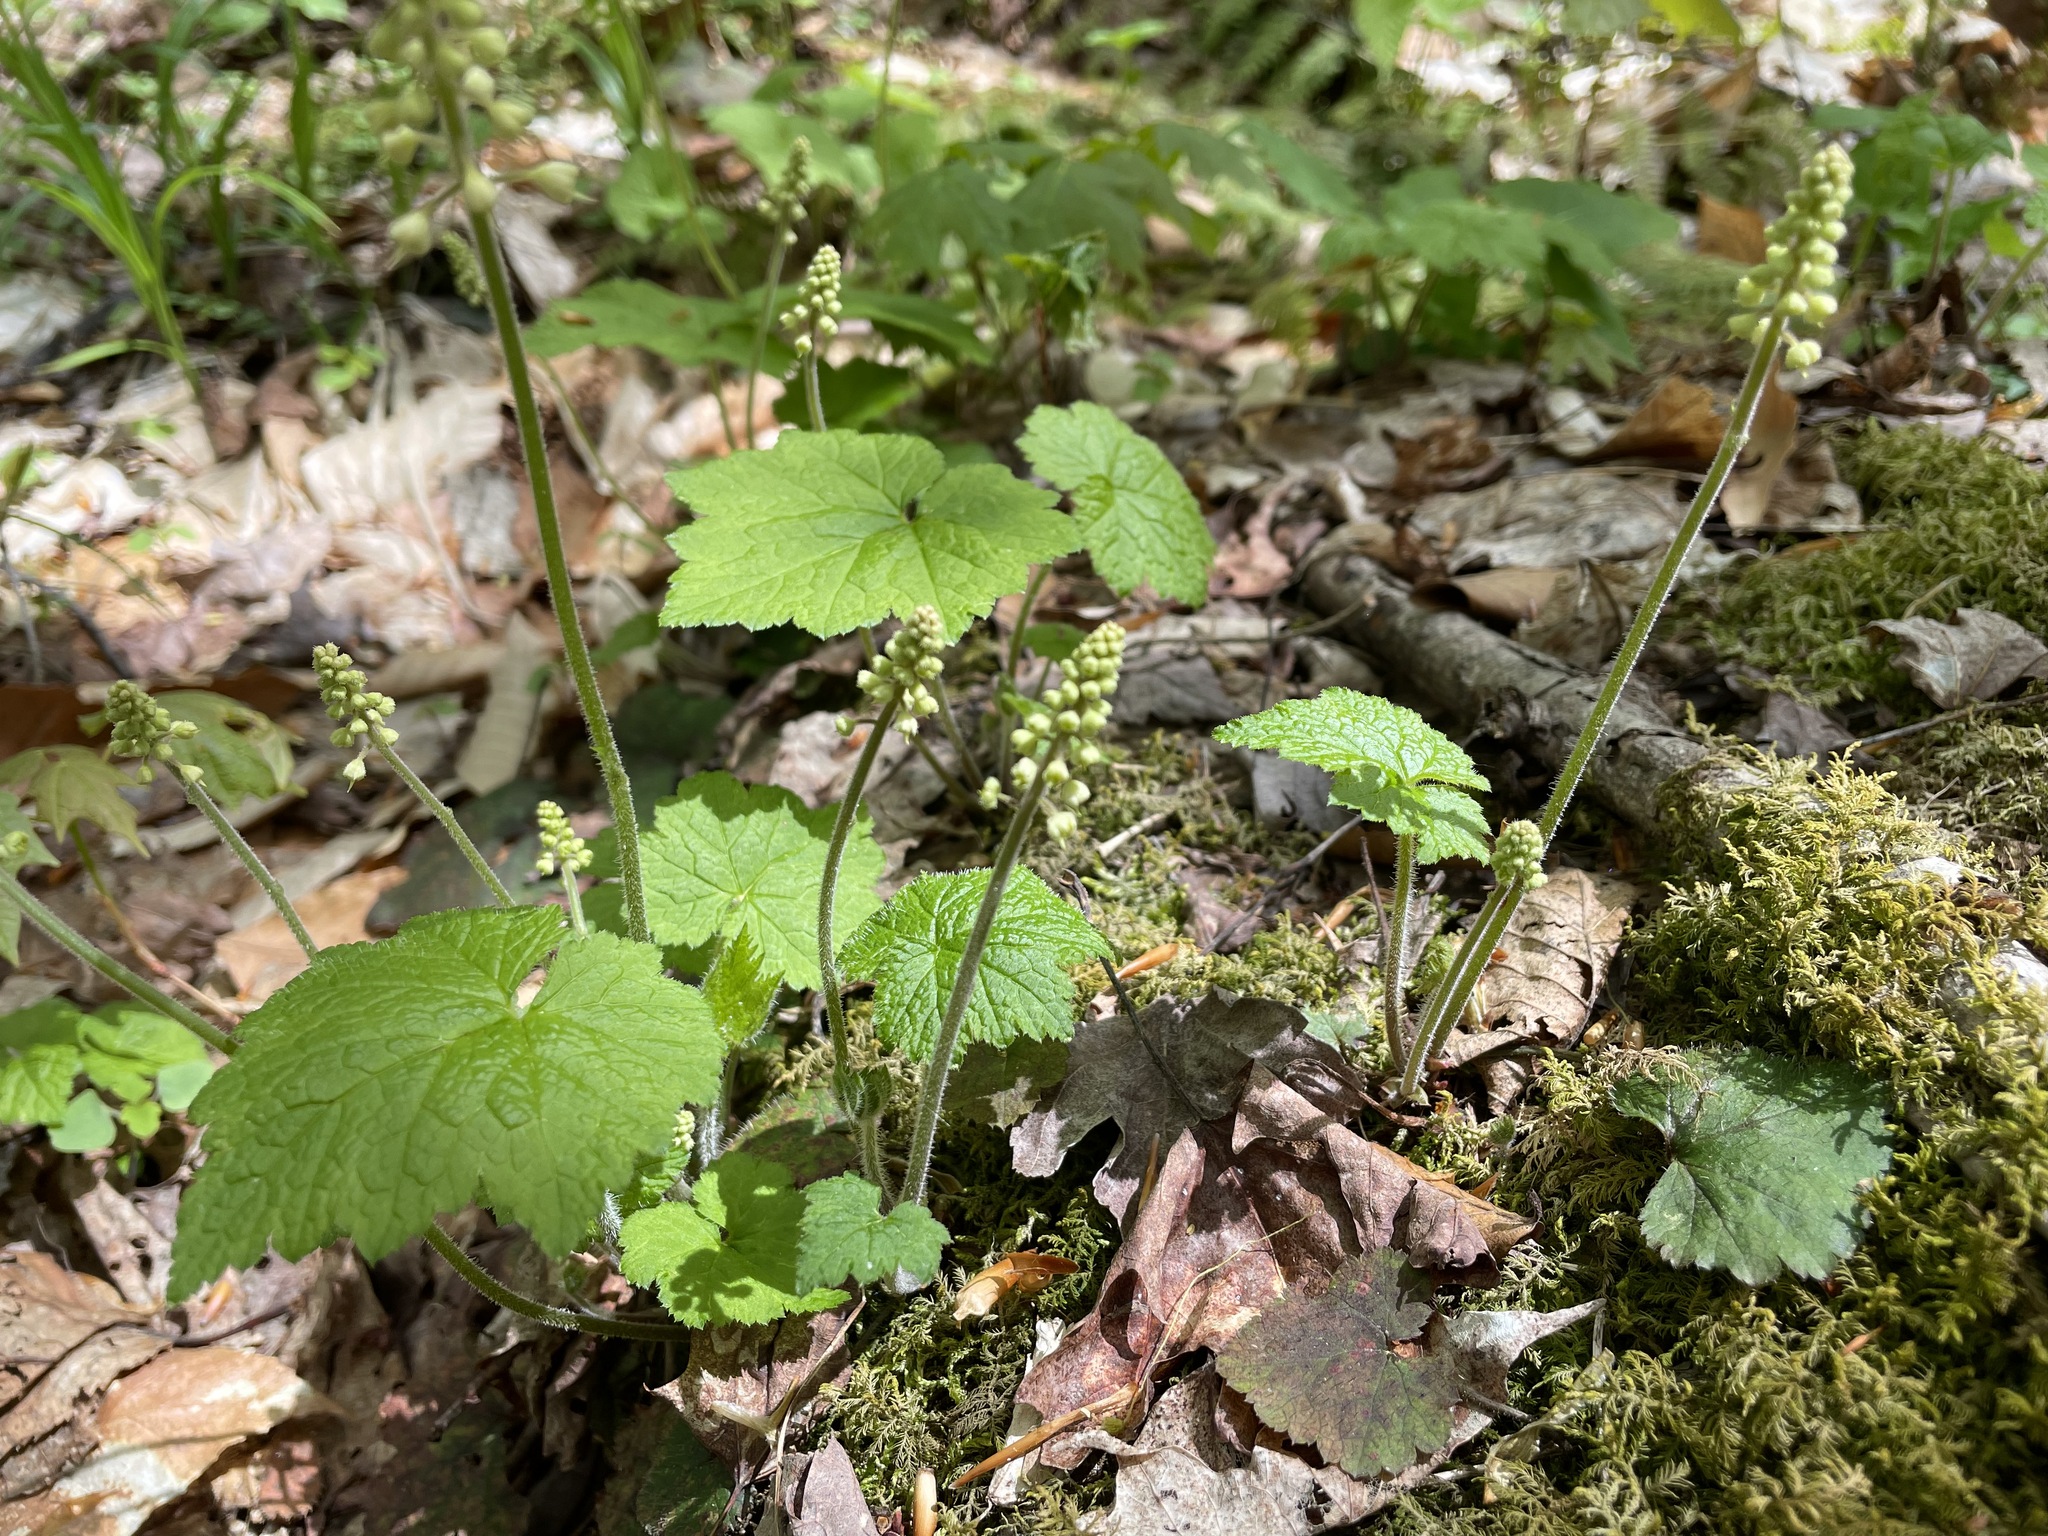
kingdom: Plantae
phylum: Tracheophyta
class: Magnoliopsida
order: Saxifragales
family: Saxifragaceae
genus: Tiarella
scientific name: Tiarella stolonifera
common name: Stoloniferous foamflower
